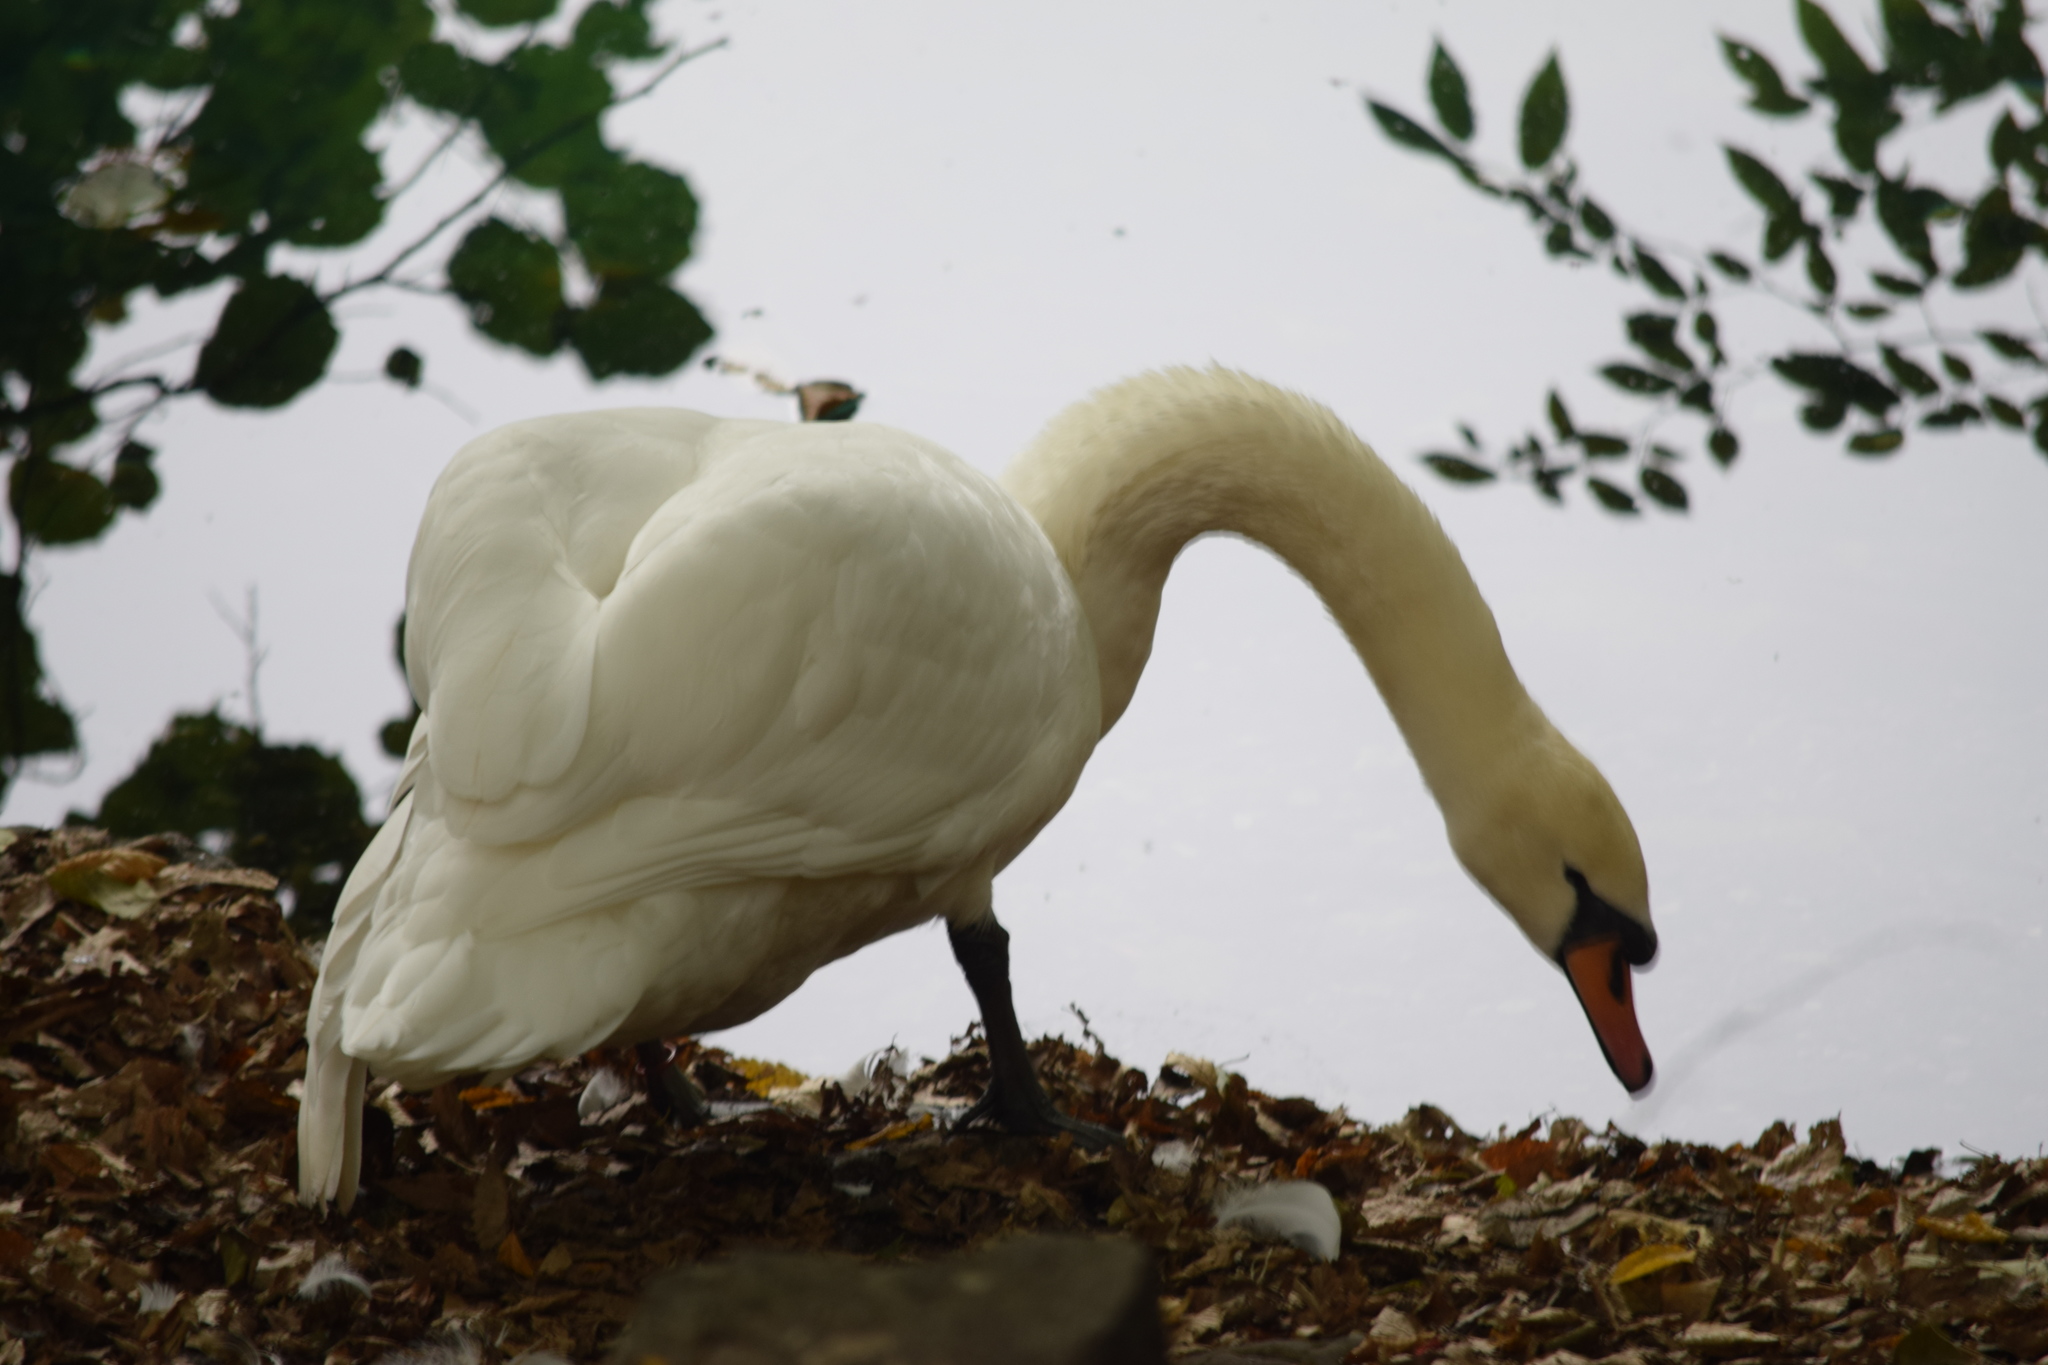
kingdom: Animalia
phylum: Chordata
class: Aves
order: Anseriformes
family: Anatidae
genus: Cygnus
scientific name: Cygnus olor
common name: Mute swan
